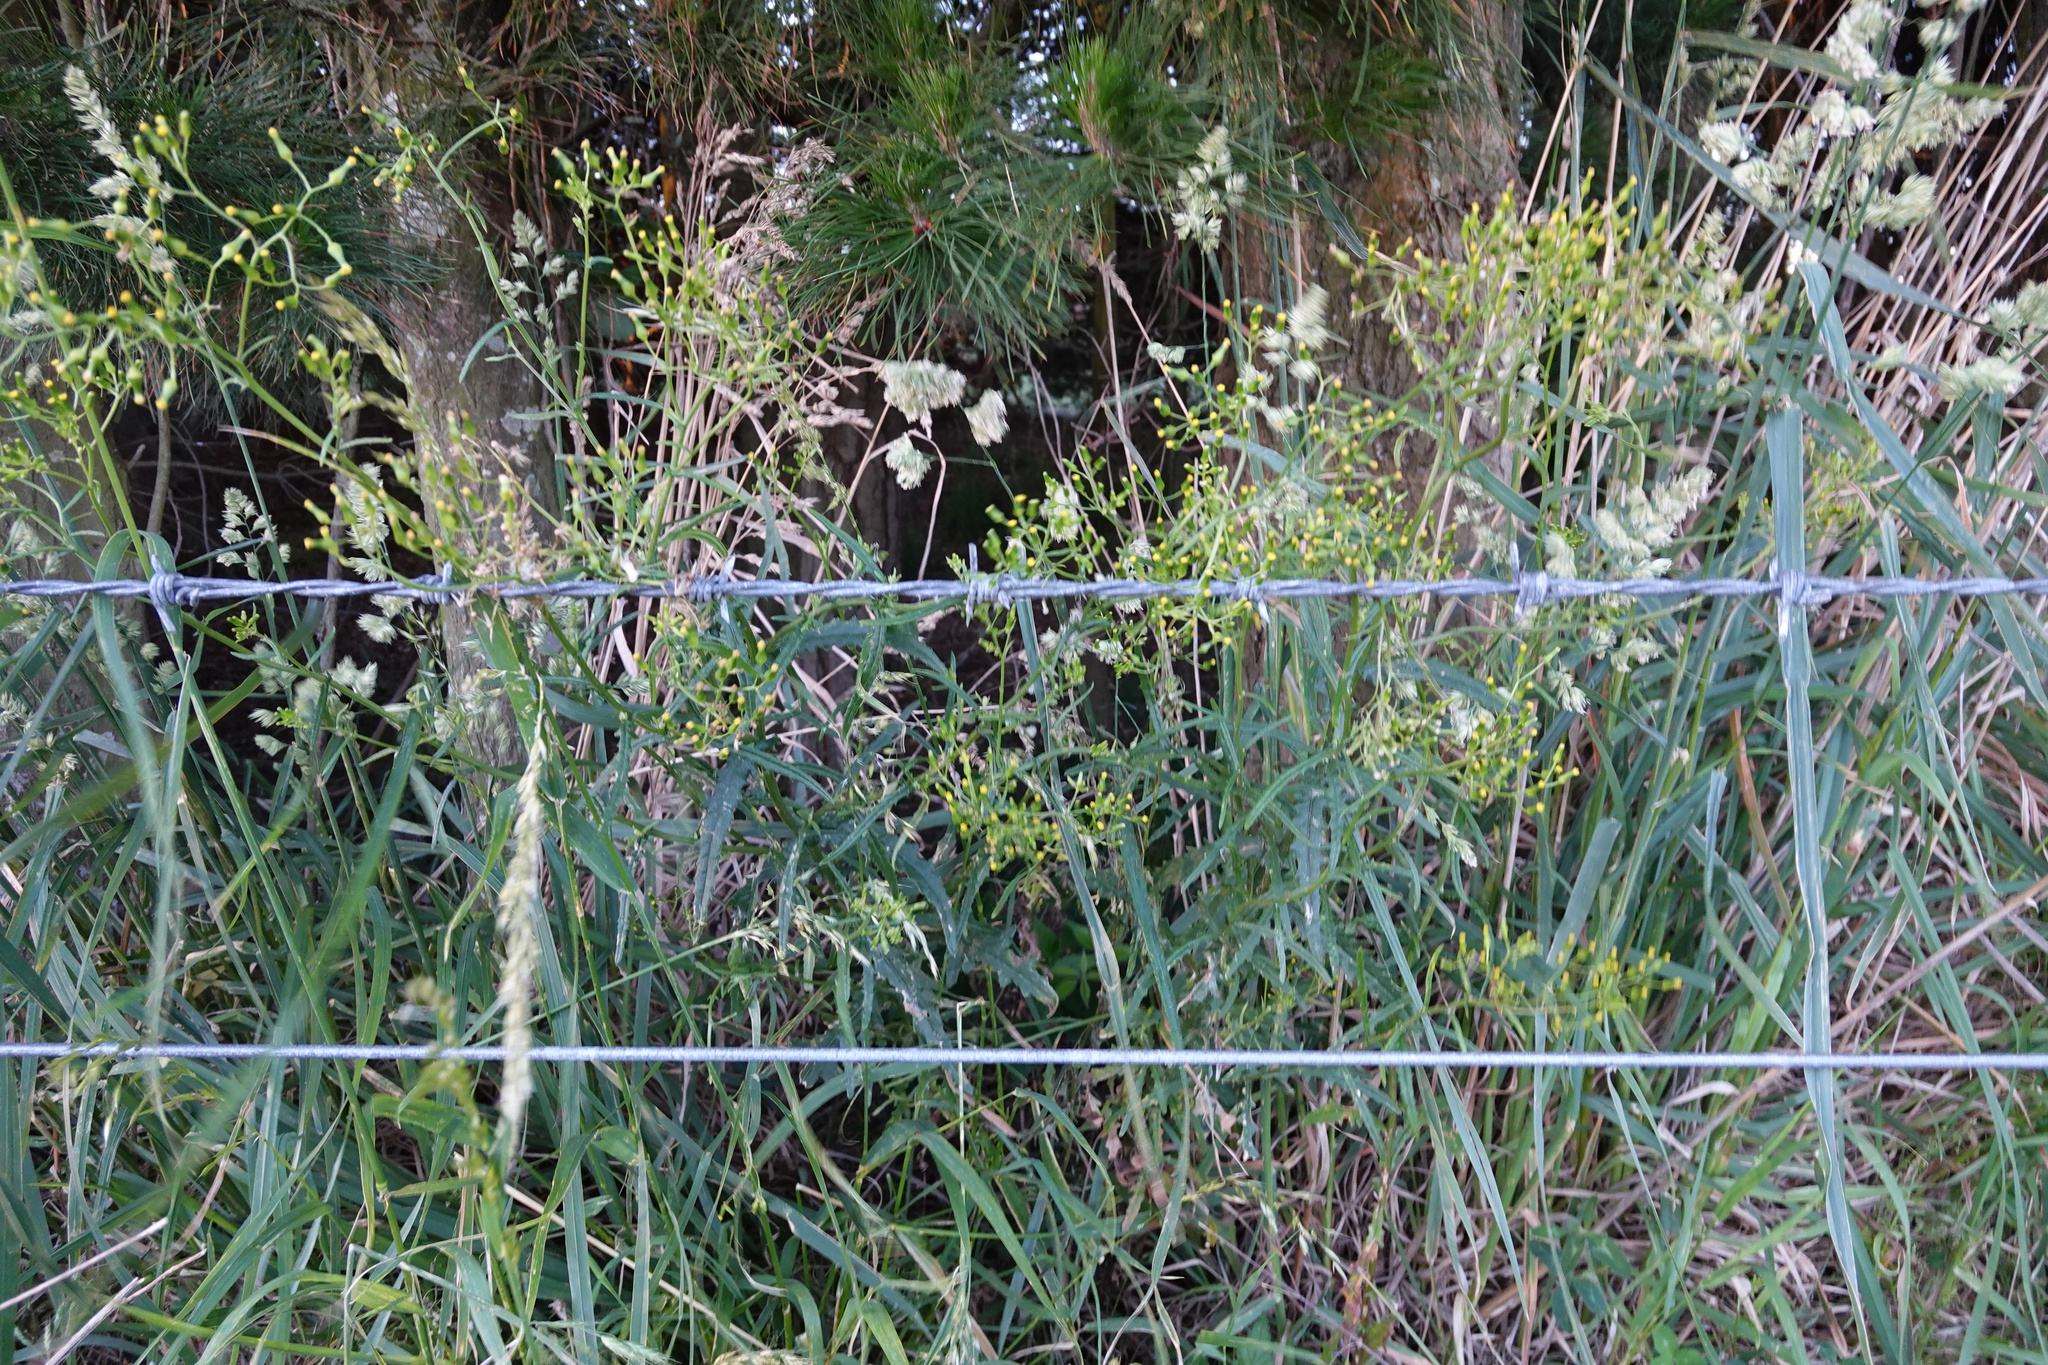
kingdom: Plantae
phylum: Tracheophyta
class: Magnoliopsida
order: Asterales
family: Asteraceae
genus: Senecio
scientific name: Senecio hispidulus
